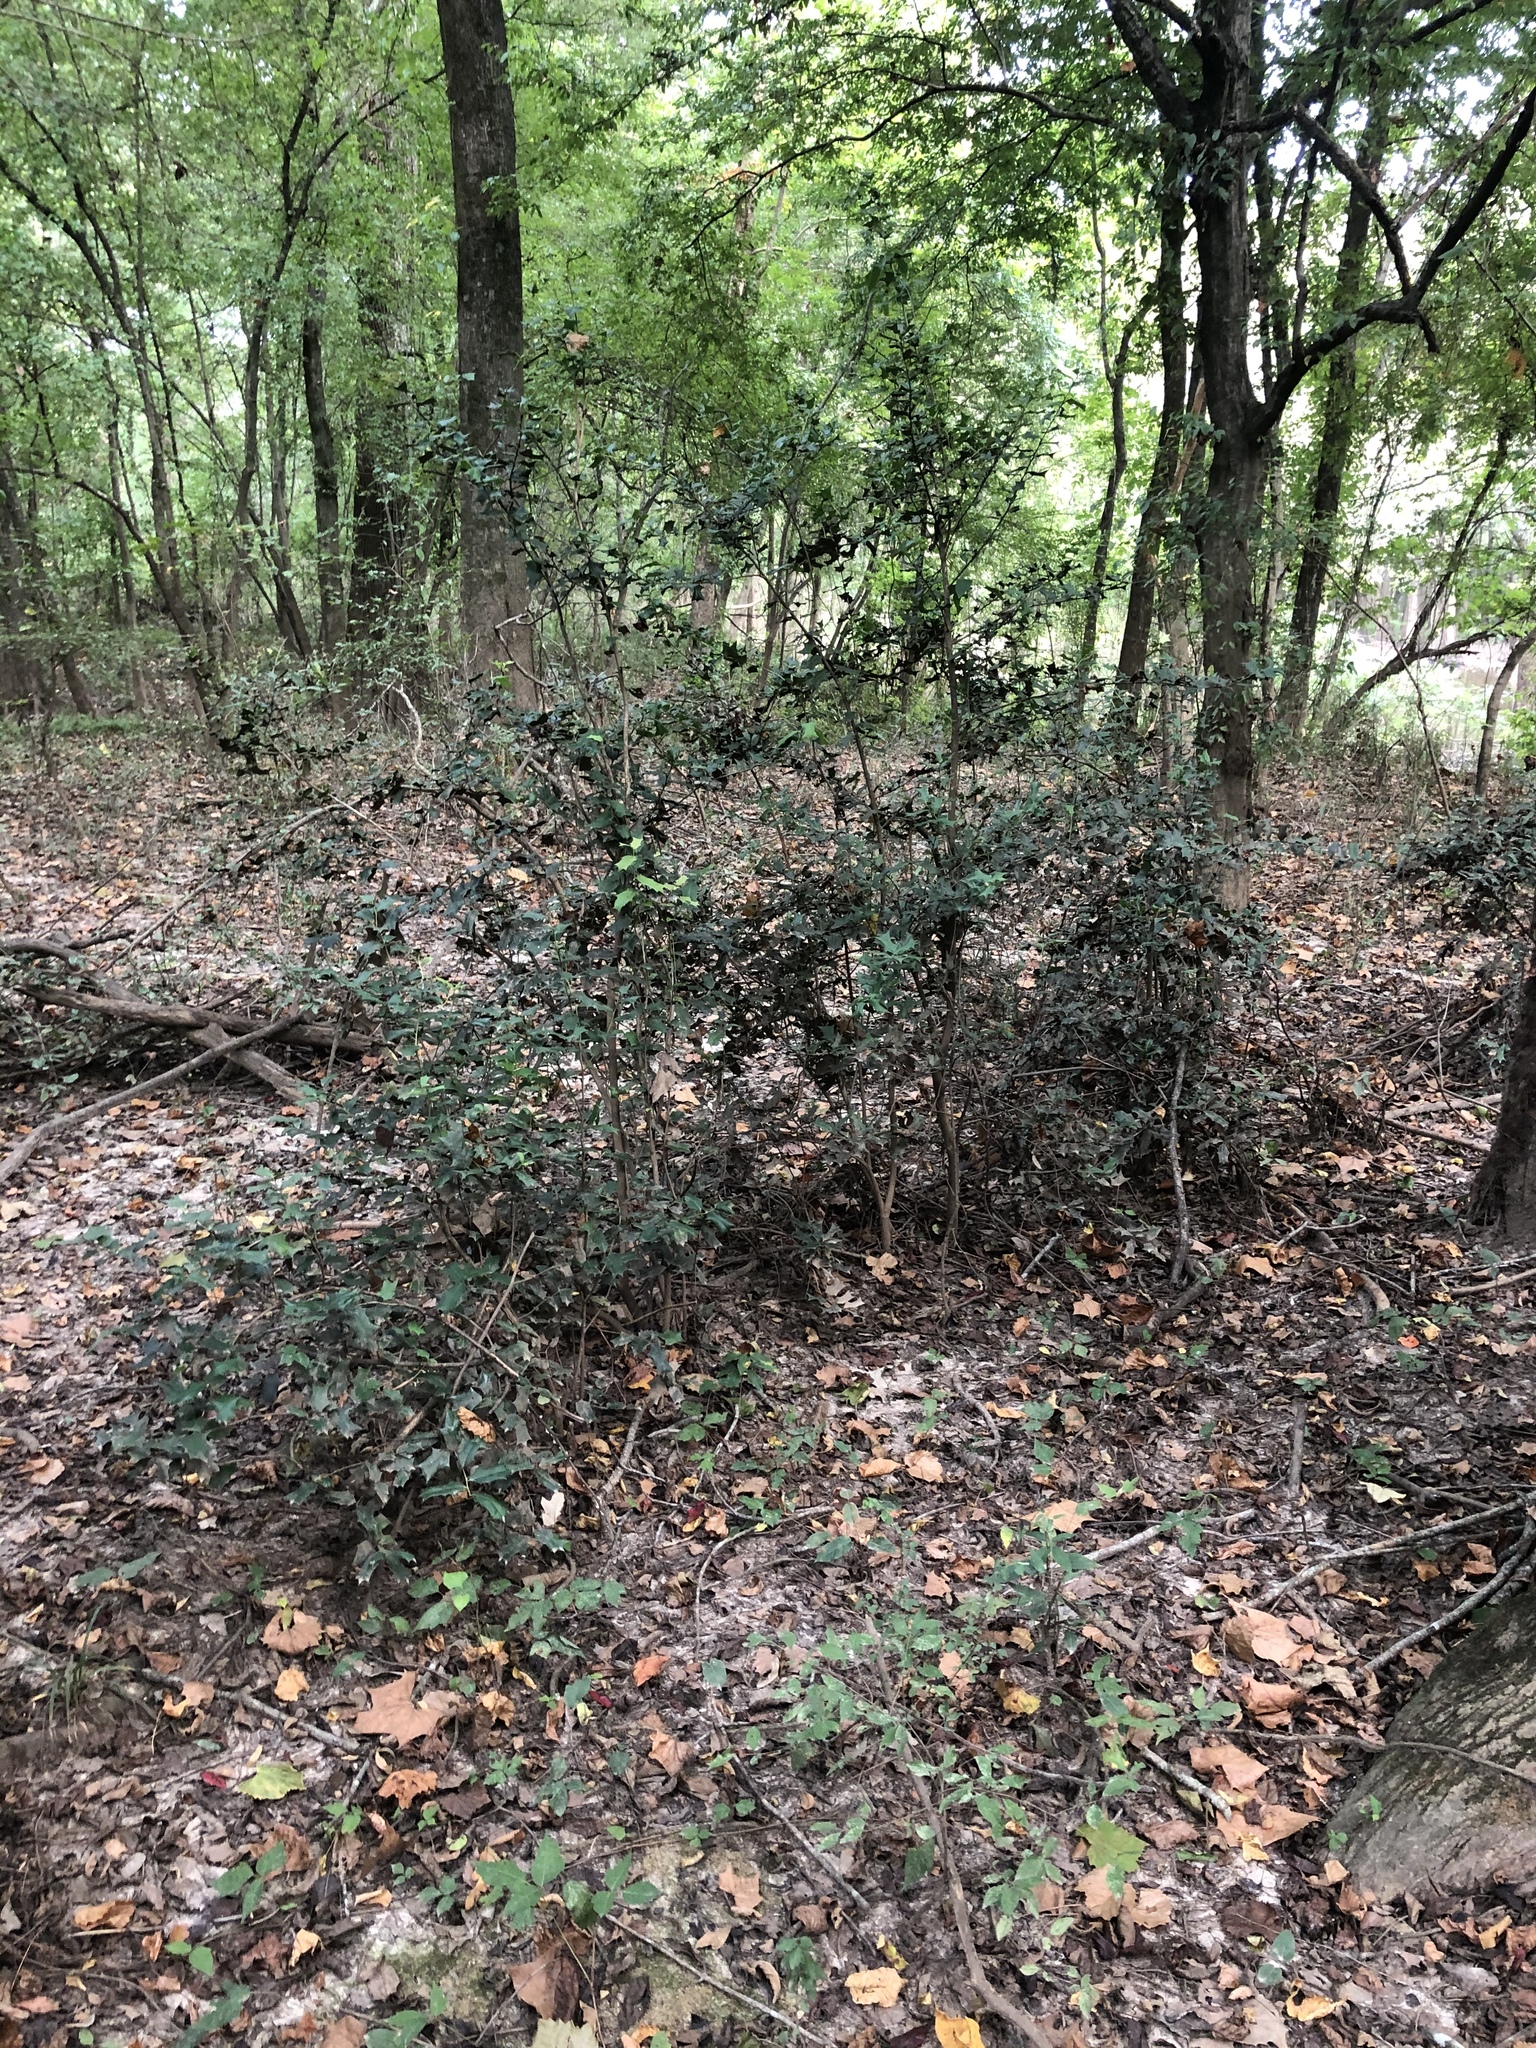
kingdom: Plantae
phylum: Tracheophyta
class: Magnoliopsida
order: Aquifoliales
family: Aquifoliaceae
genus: Ilex
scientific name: Ilex cornuta
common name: Chinese holly
